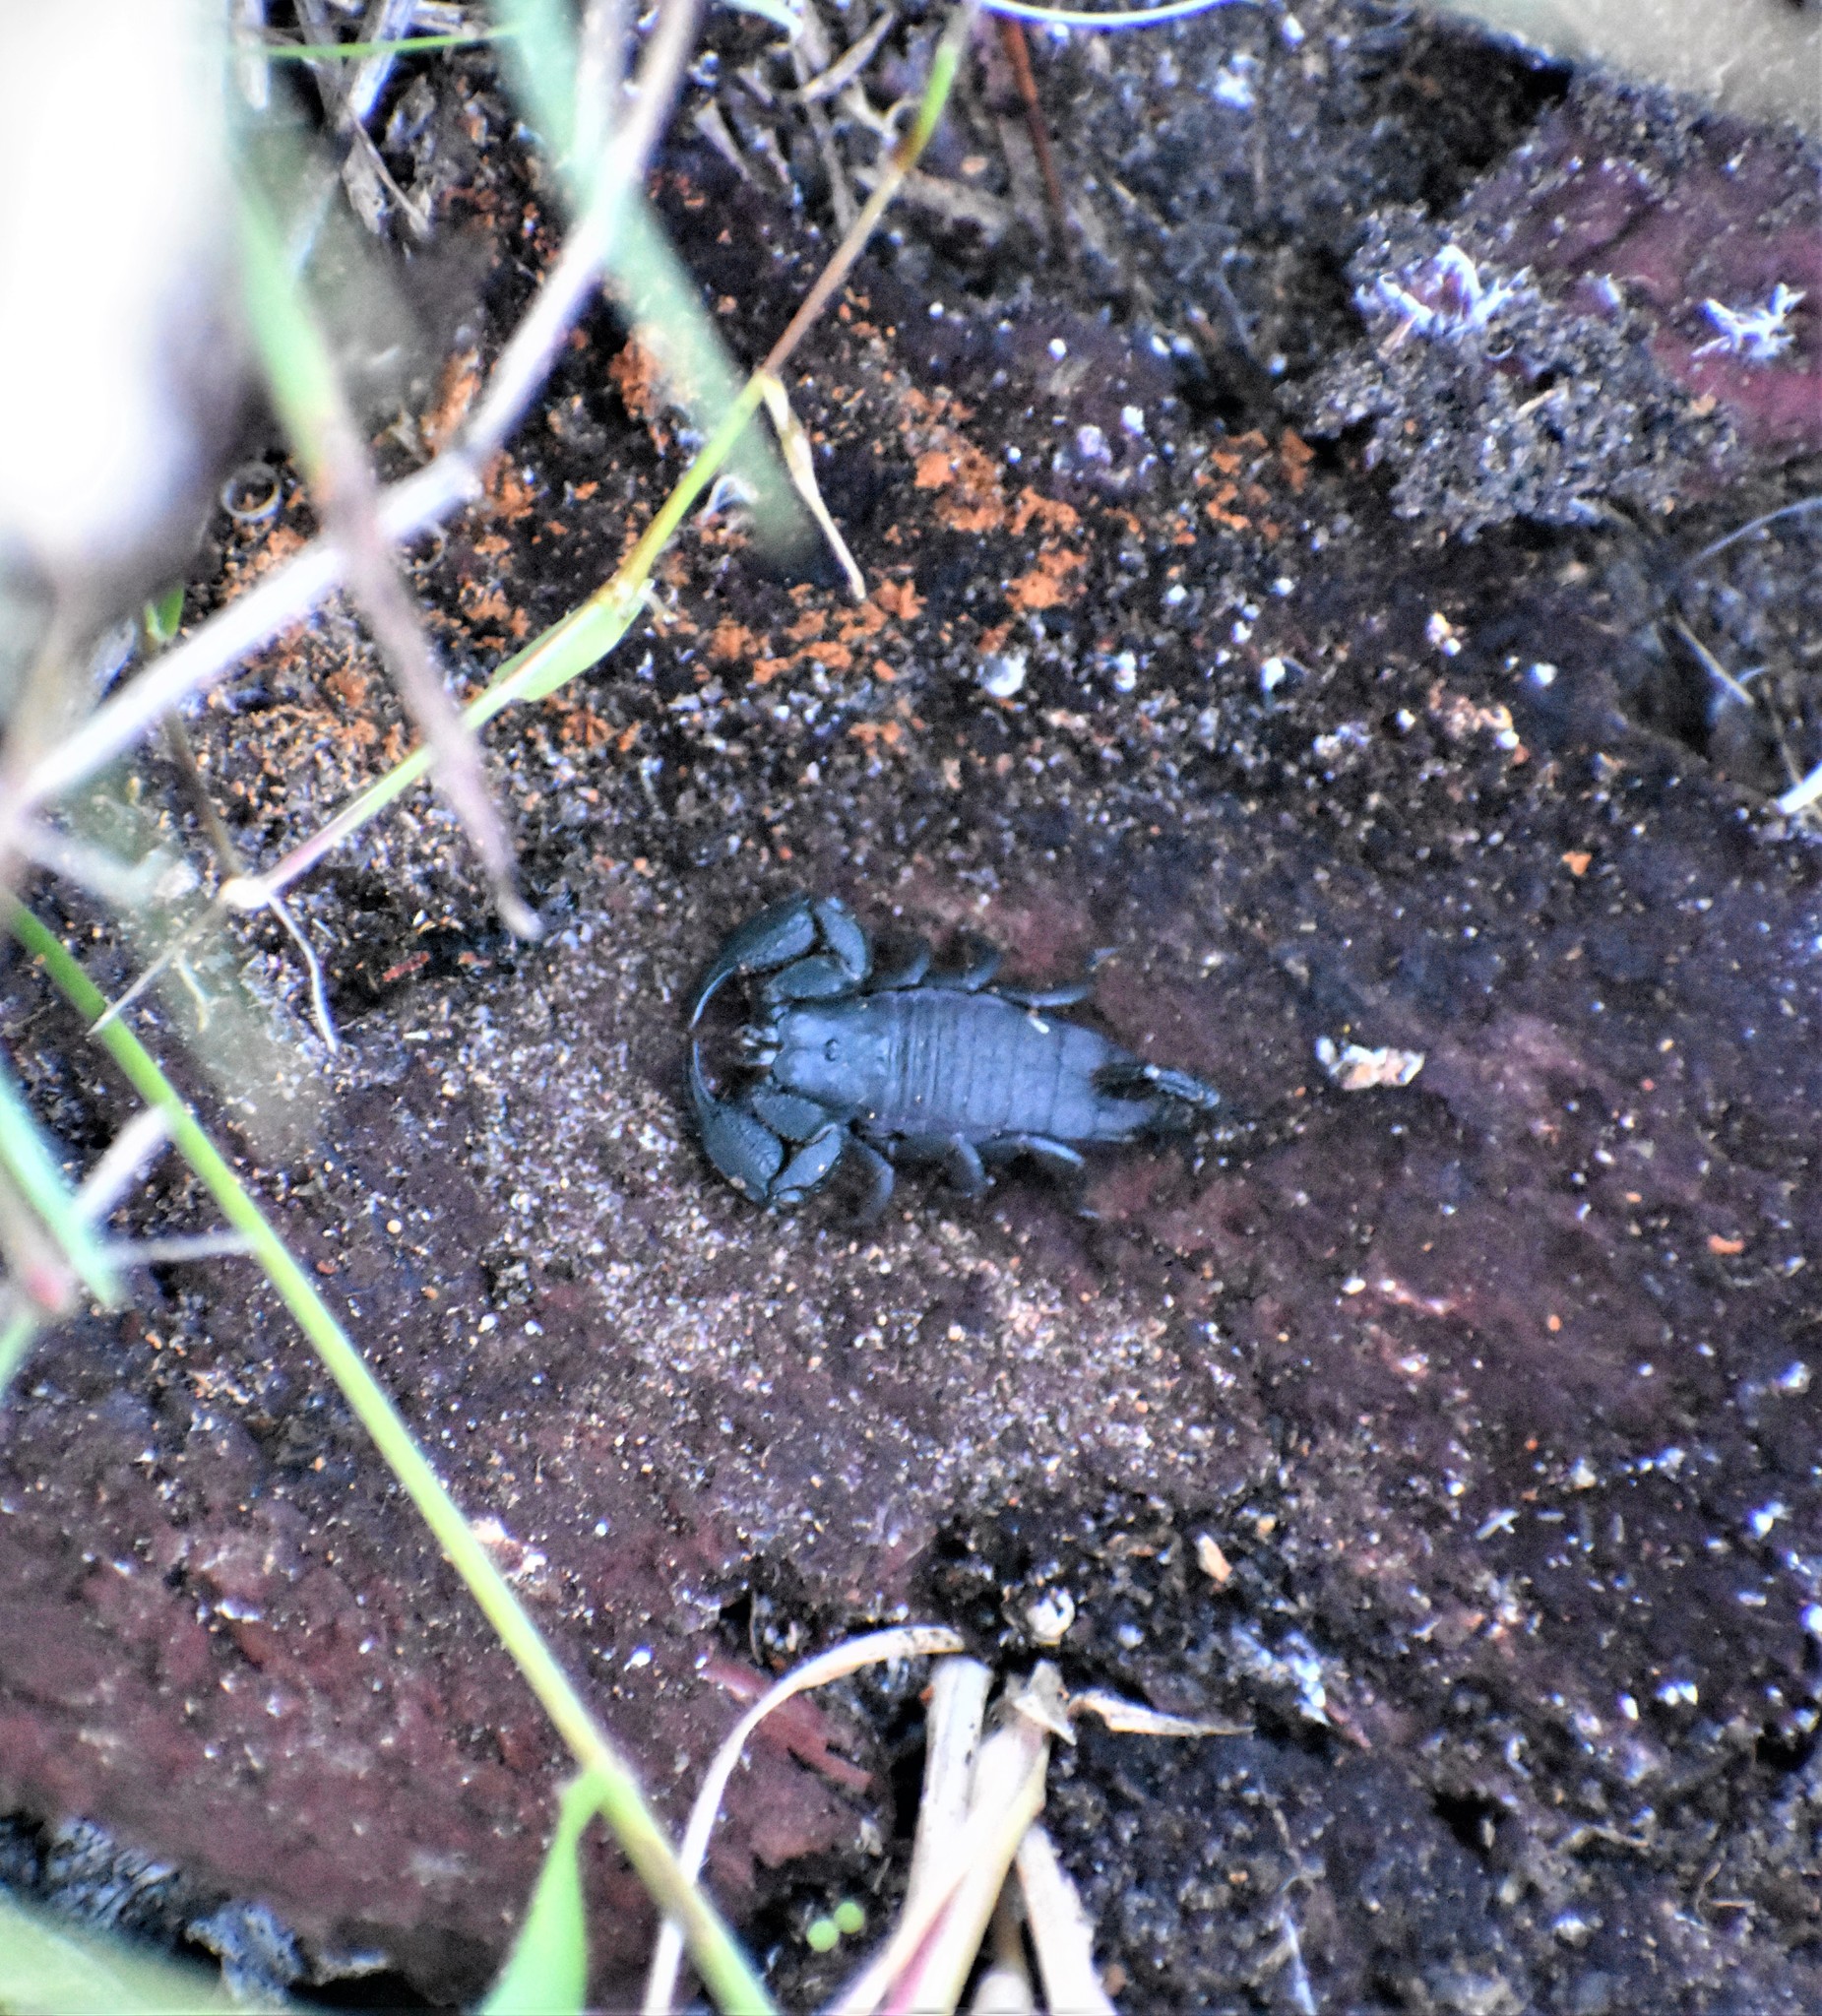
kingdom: Animalia
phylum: Arthropoda
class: Arachnida
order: Scorpiones
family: Hormuridae
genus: Opisthacanthus
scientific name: Opisthacanthus capensis
